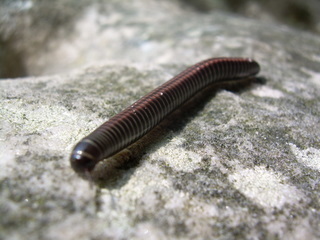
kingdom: Animalia
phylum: Arthropoda
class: Diplopoda
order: Julida
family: Julidae
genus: Ommatoiulus
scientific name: Ommatoiulus sabulosus
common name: Striped millipede
